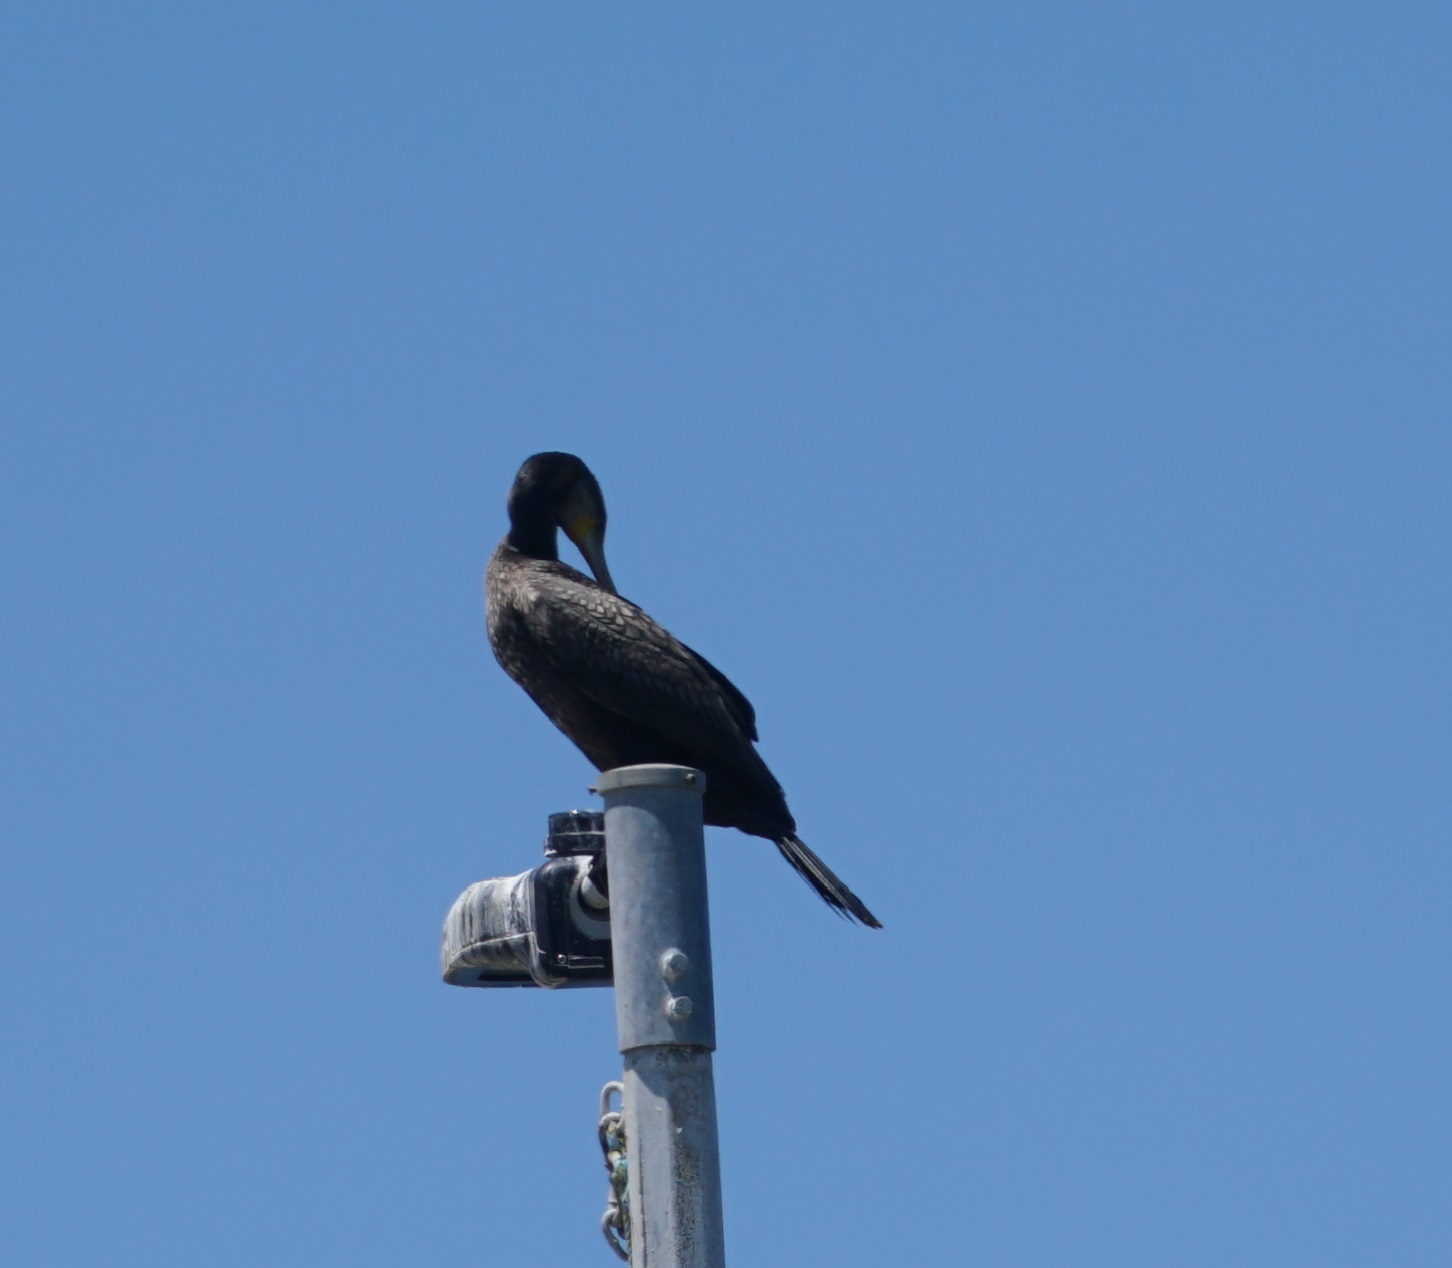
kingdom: Animalia
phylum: Chordata
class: Aves
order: Suliformes
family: Phalacrocoracidae
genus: Phalacrocorax
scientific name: Phalacrocorax carbo
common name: Great cormorant
